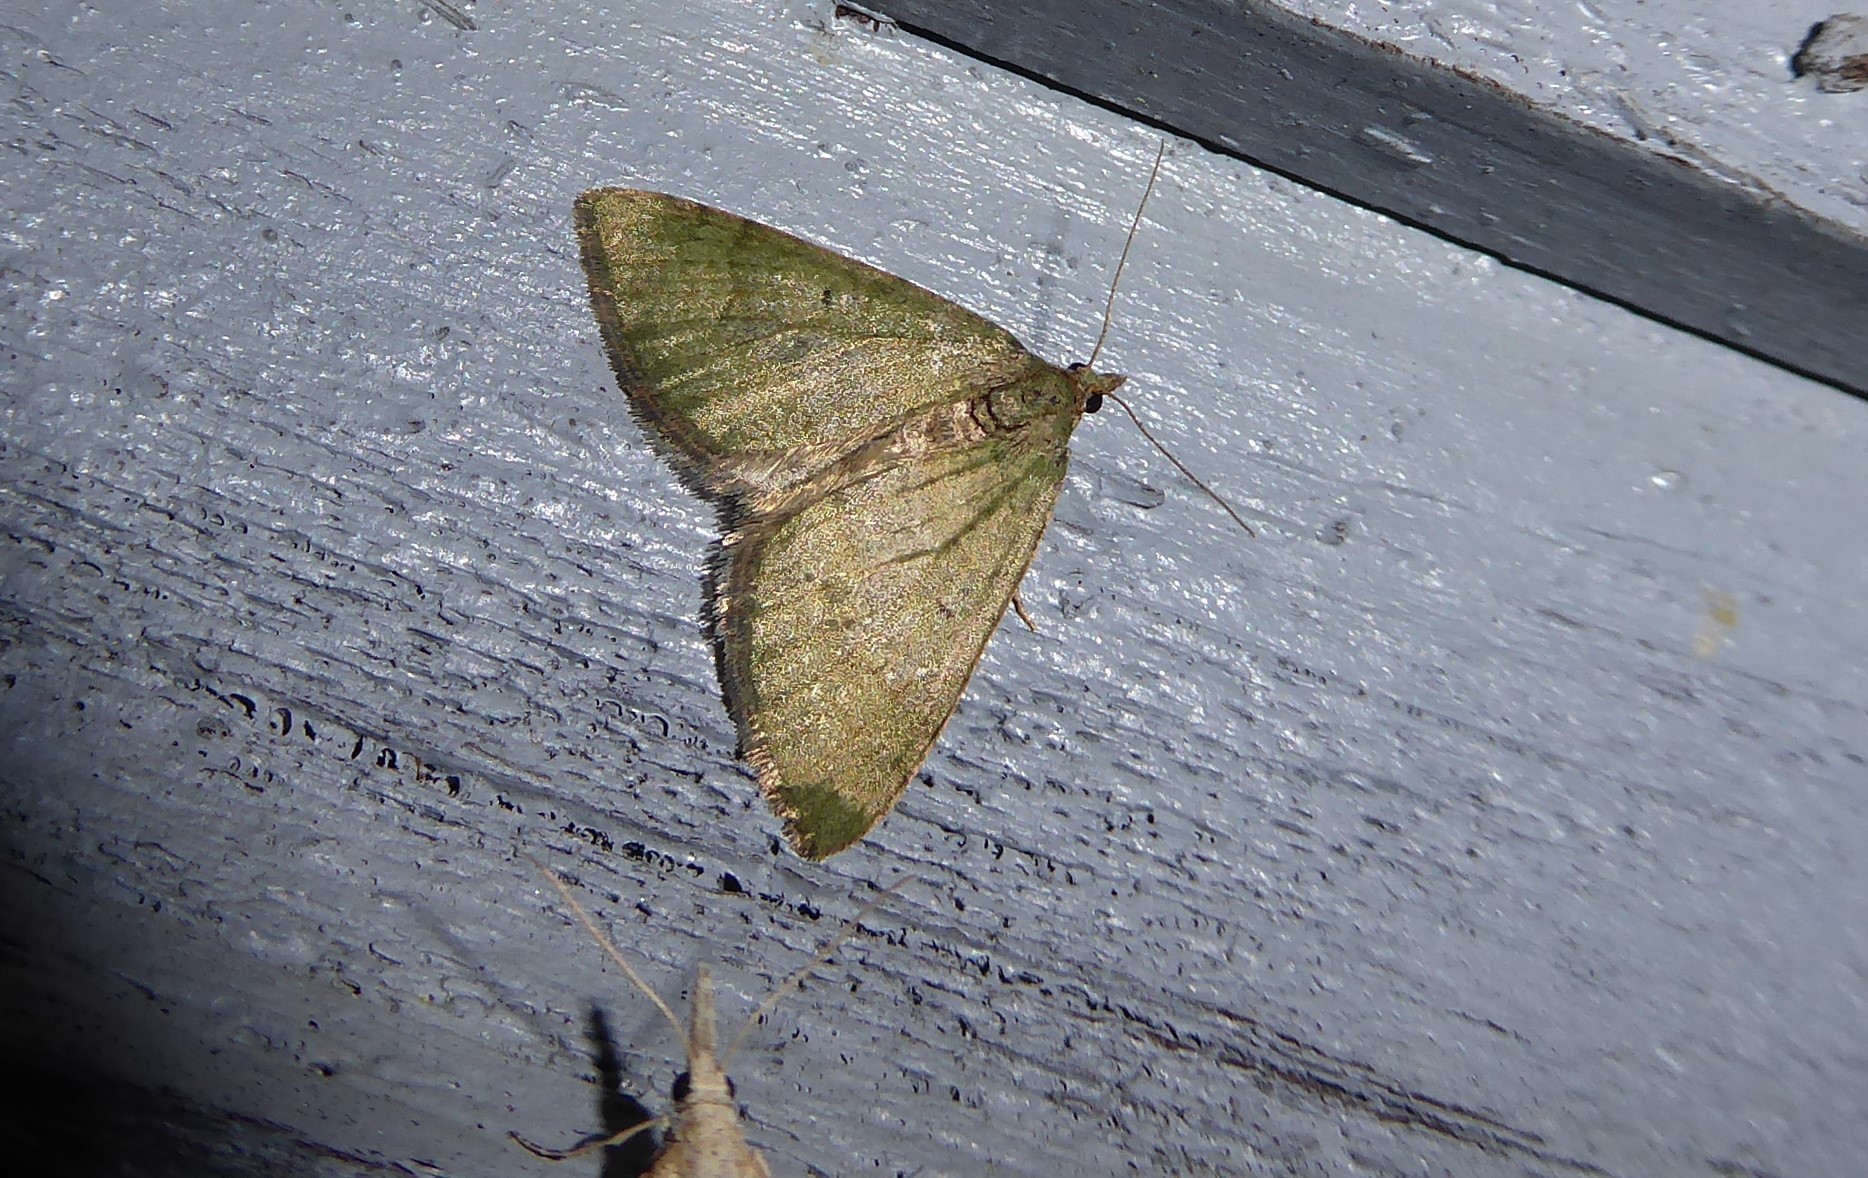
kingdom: Animalia
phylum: Arthropoda
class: Insecta
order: Lepidoptera
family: Geometridae
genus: Epyaxa
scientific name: Epyaxa rosearia
